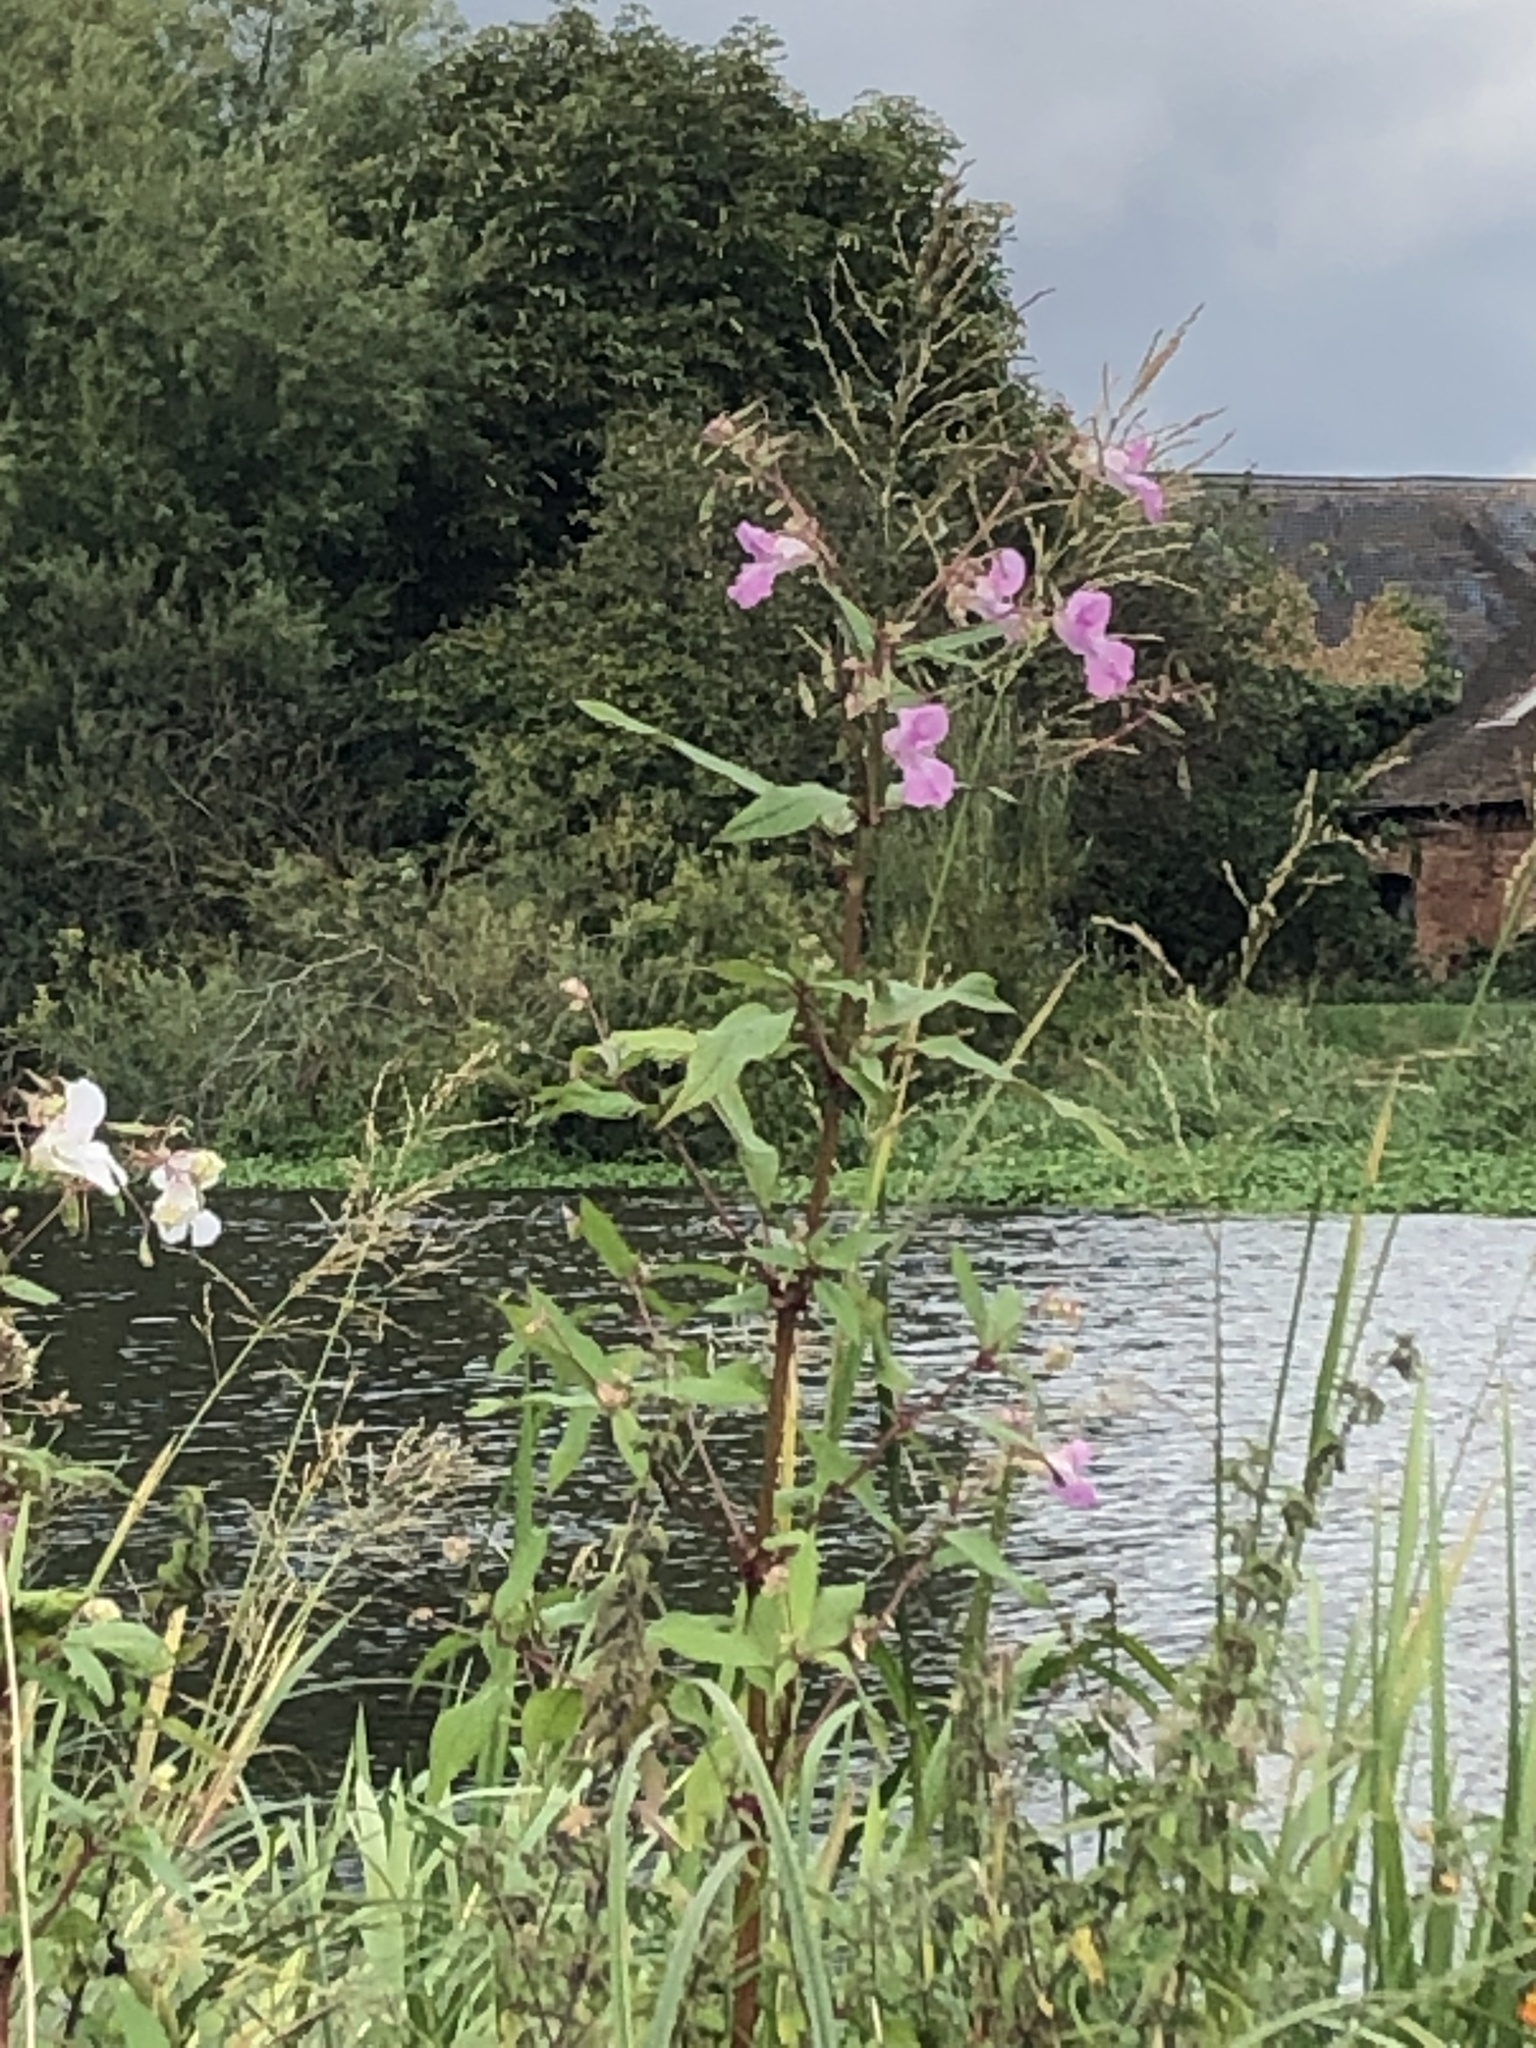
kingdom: Plantae
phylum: Tracheophyta
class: Magnoliopsida
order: Ericales
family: Balsaminaceae
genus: Impatiens
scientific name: Impatiens glandulifera
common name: Himalayan balsam
